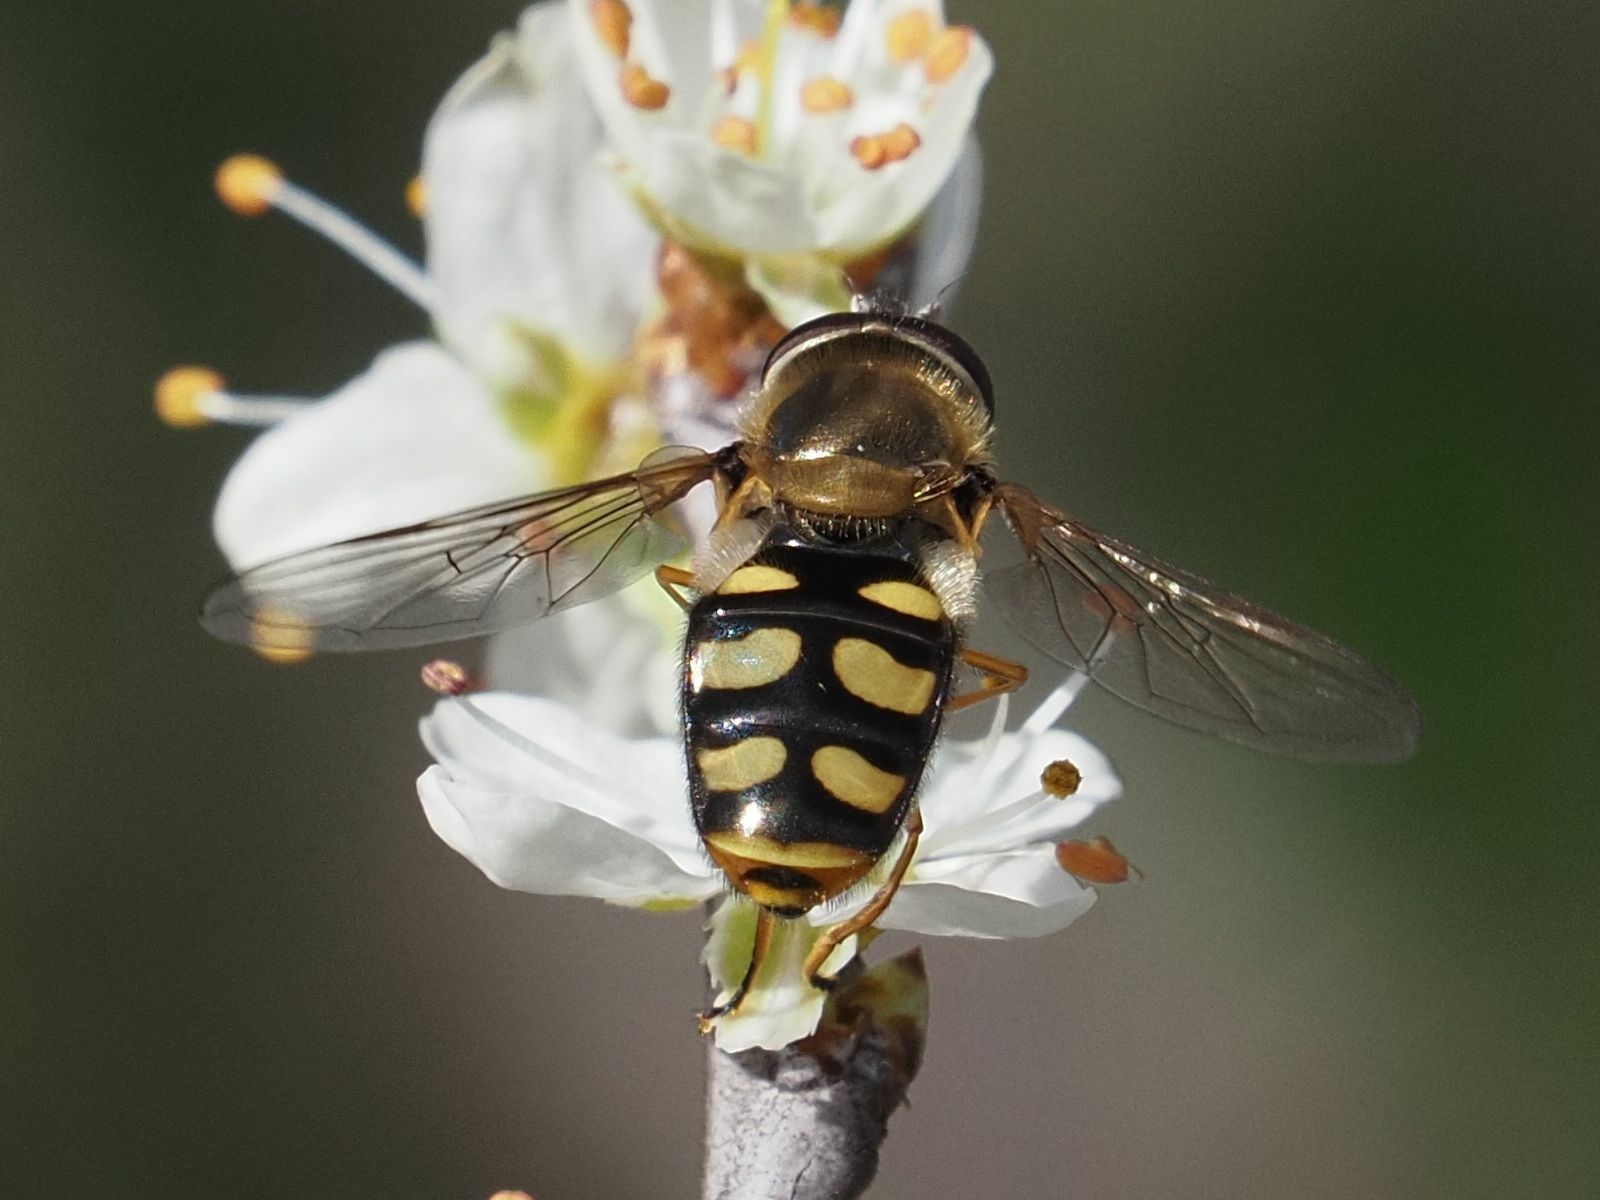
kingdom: Animalia
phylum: Arthropoda
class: Insecta
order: Diptera
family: Syrphidae
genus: Eupeodes
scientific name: Eupeodes luniger
